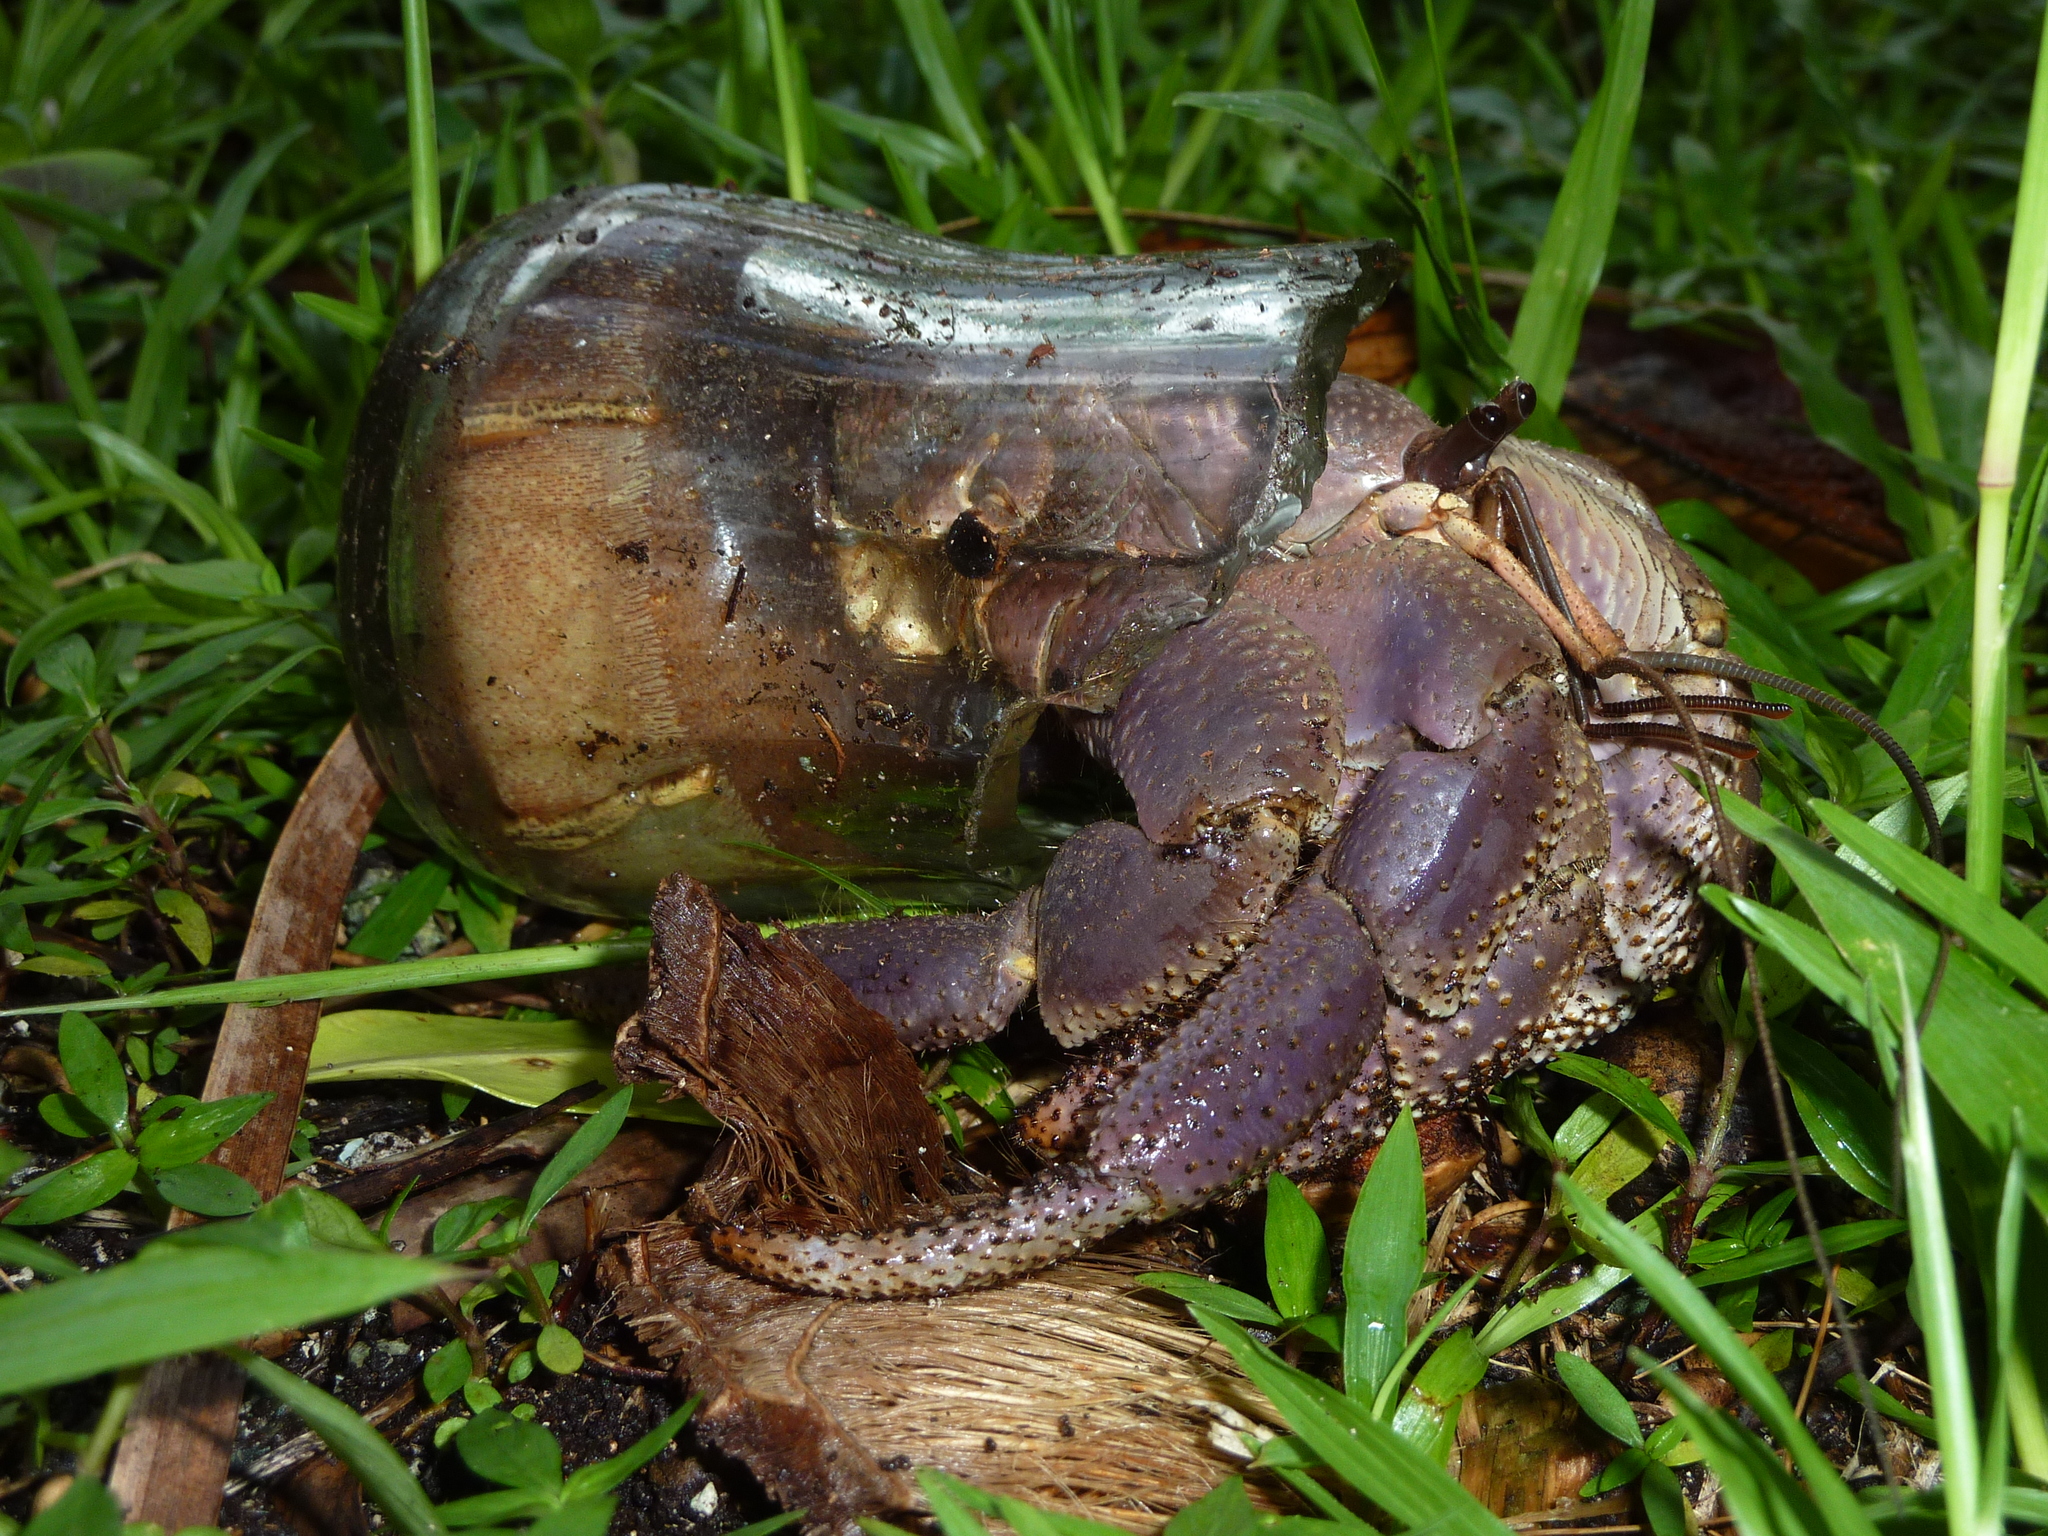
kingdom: Animalia
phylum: Arthropoda
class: Malacostraca
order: Decapoda
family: Coenobitidae
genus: Coenobita
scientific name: Coenobita brevimanus
